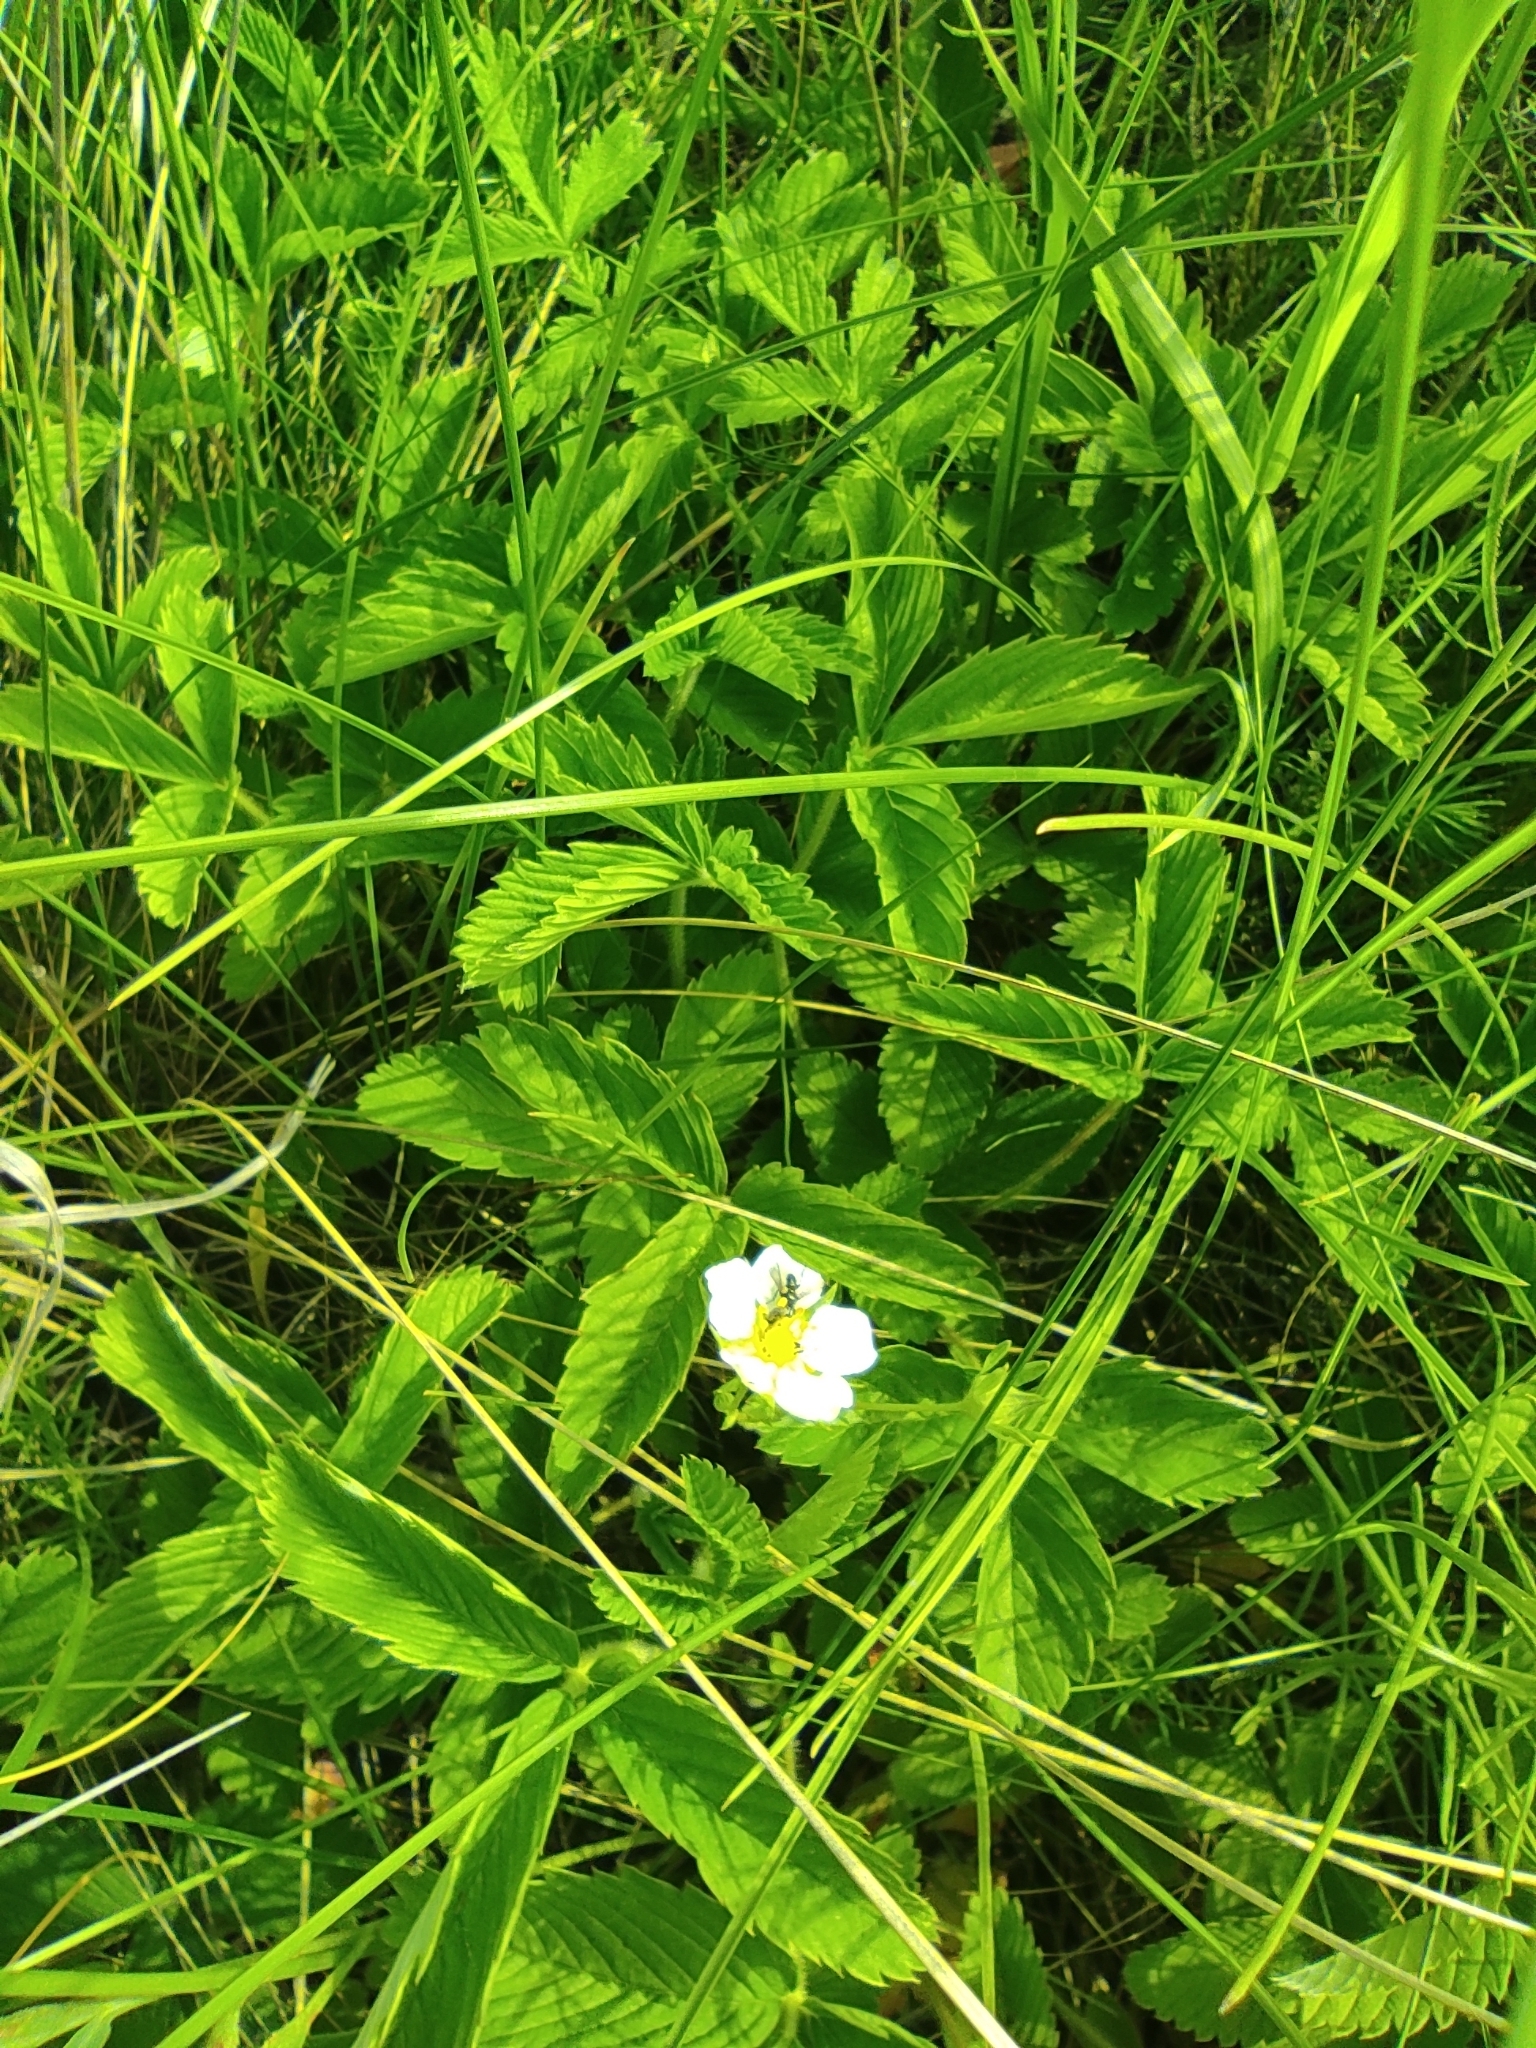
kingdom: Plantae
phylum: Tracheophyta
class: Magnoliopsida
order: Rosales
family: Rosaceae
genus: Fragaria
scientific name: Fragaria viridis
